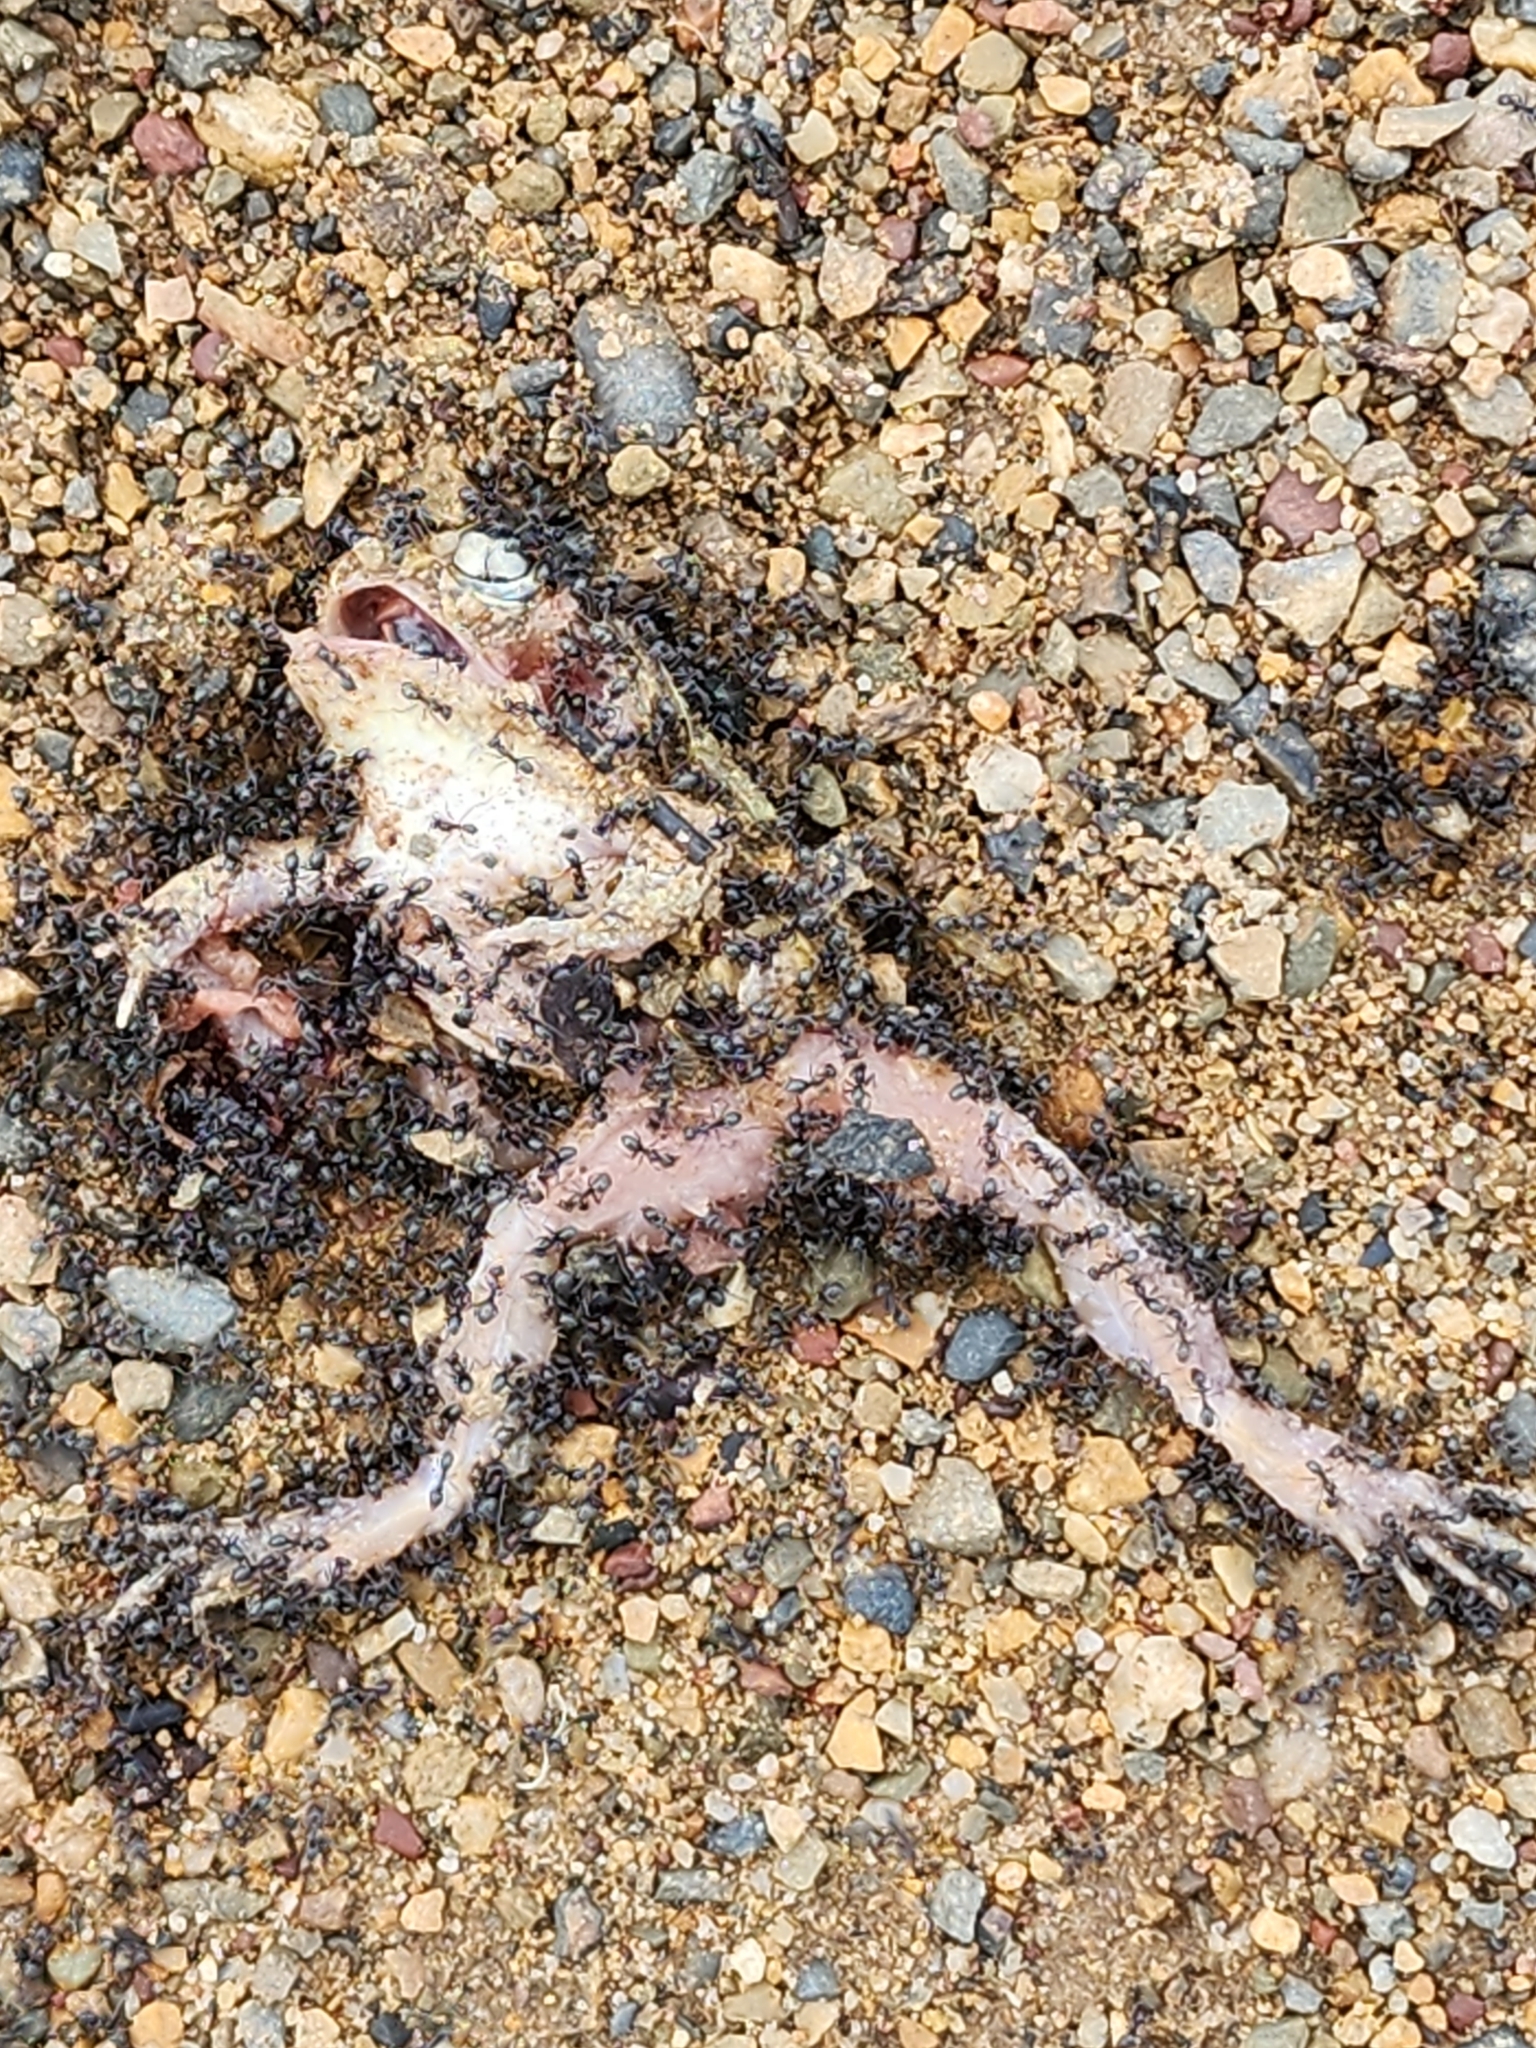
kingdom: Animalia
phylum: Chordata
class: Amphibia
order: Anura
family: Limnodynastidae
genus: Platyplectrum
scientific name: Platyplectrum ornatum
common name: Ornate burrowing frog
